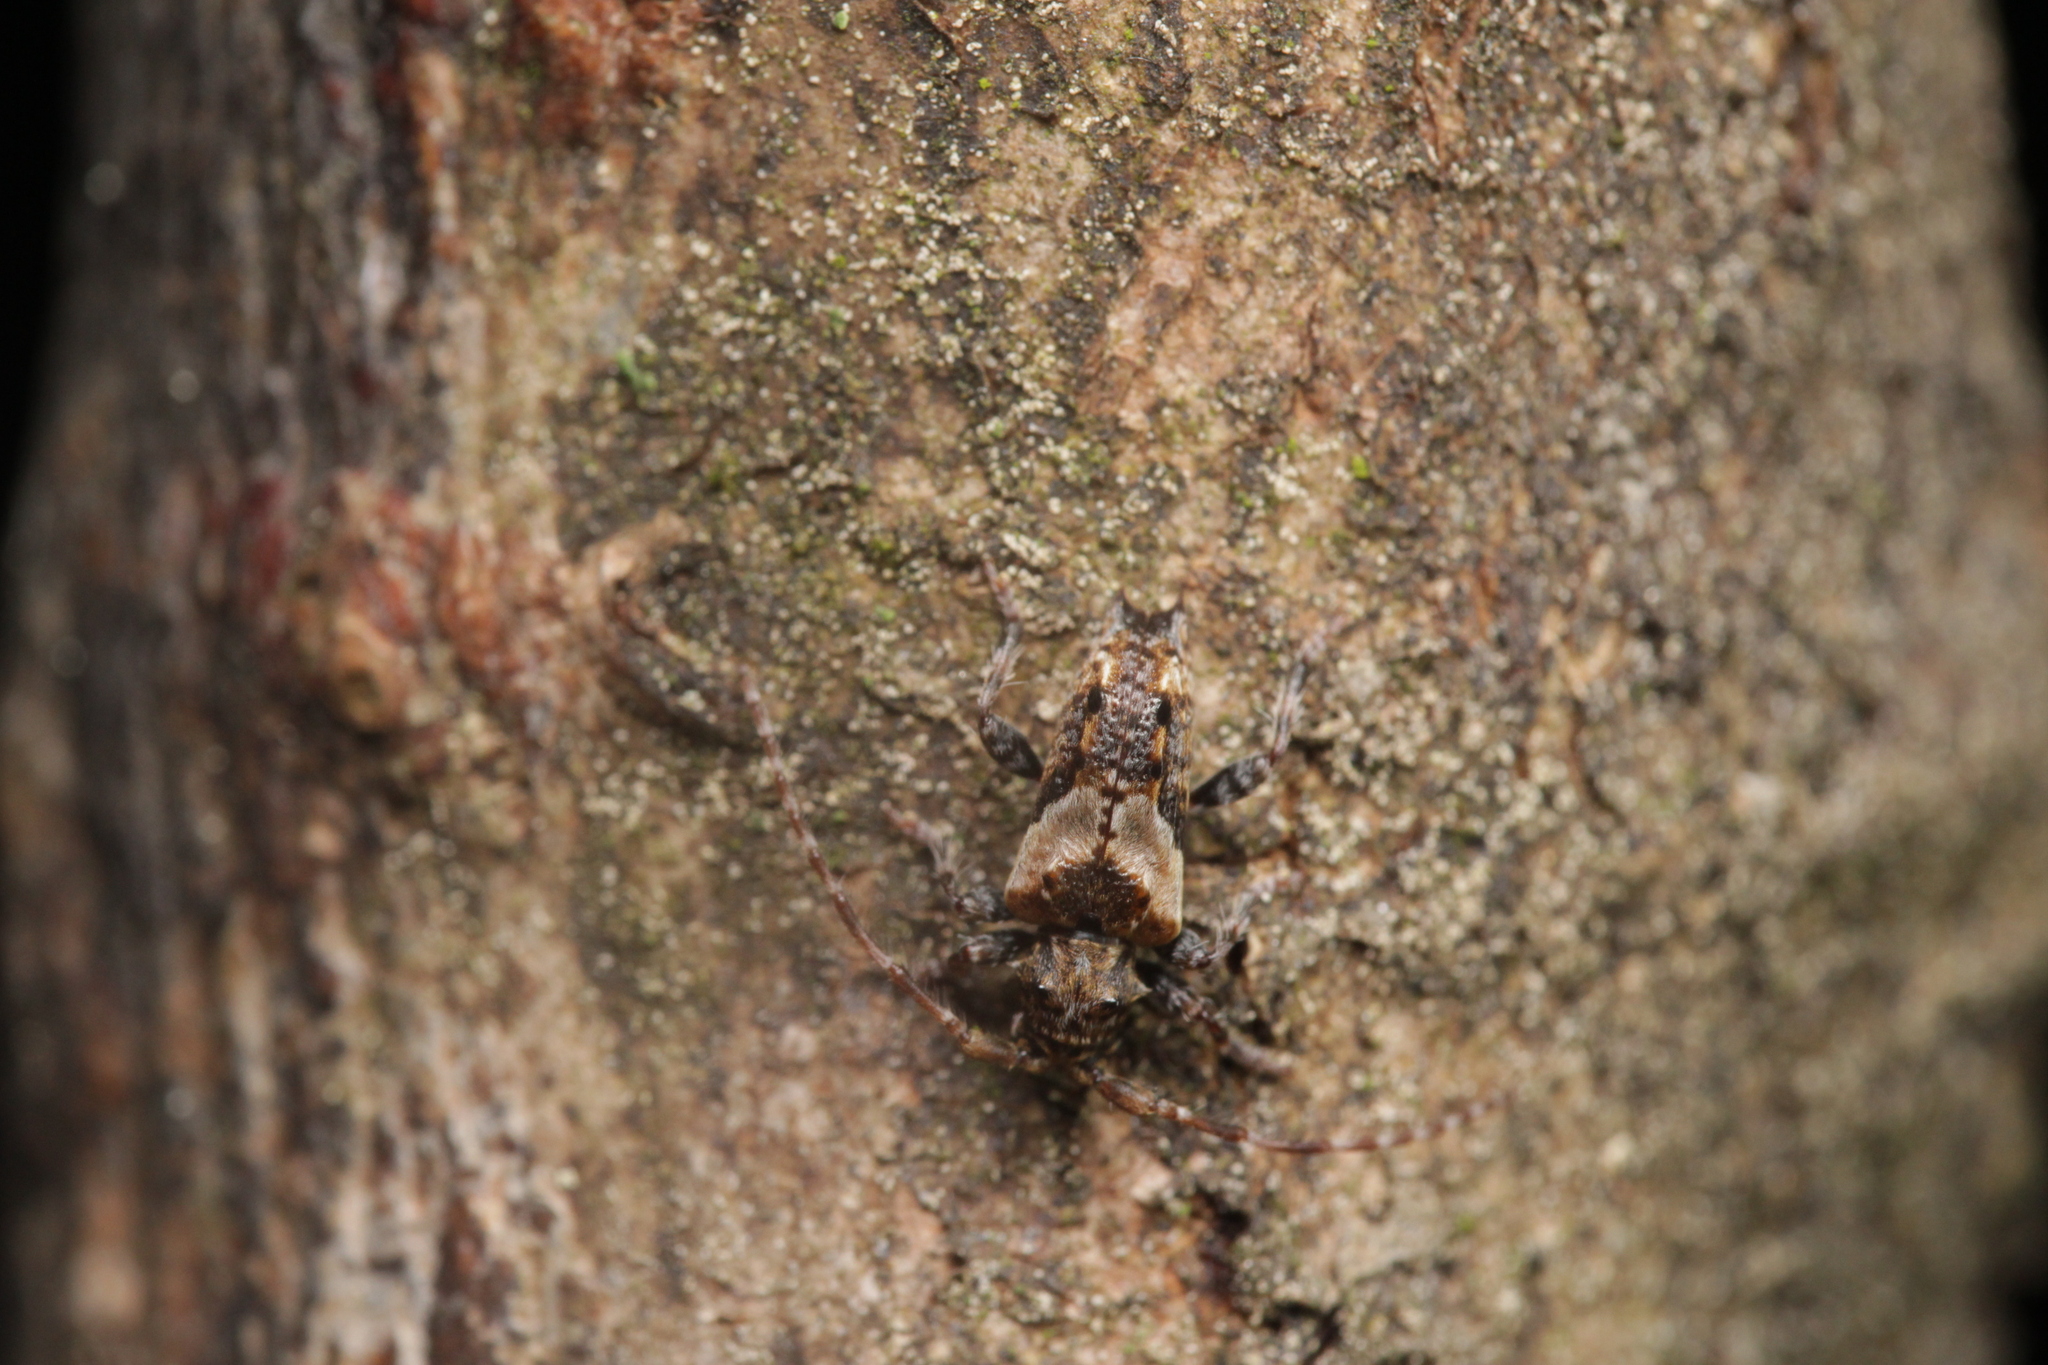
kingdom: Animalia
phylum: Arthropoda
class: Insecta
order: Coleoptera
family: Cerambycidae
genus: Pogonocherus
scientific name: Pogonocherus hispidus
